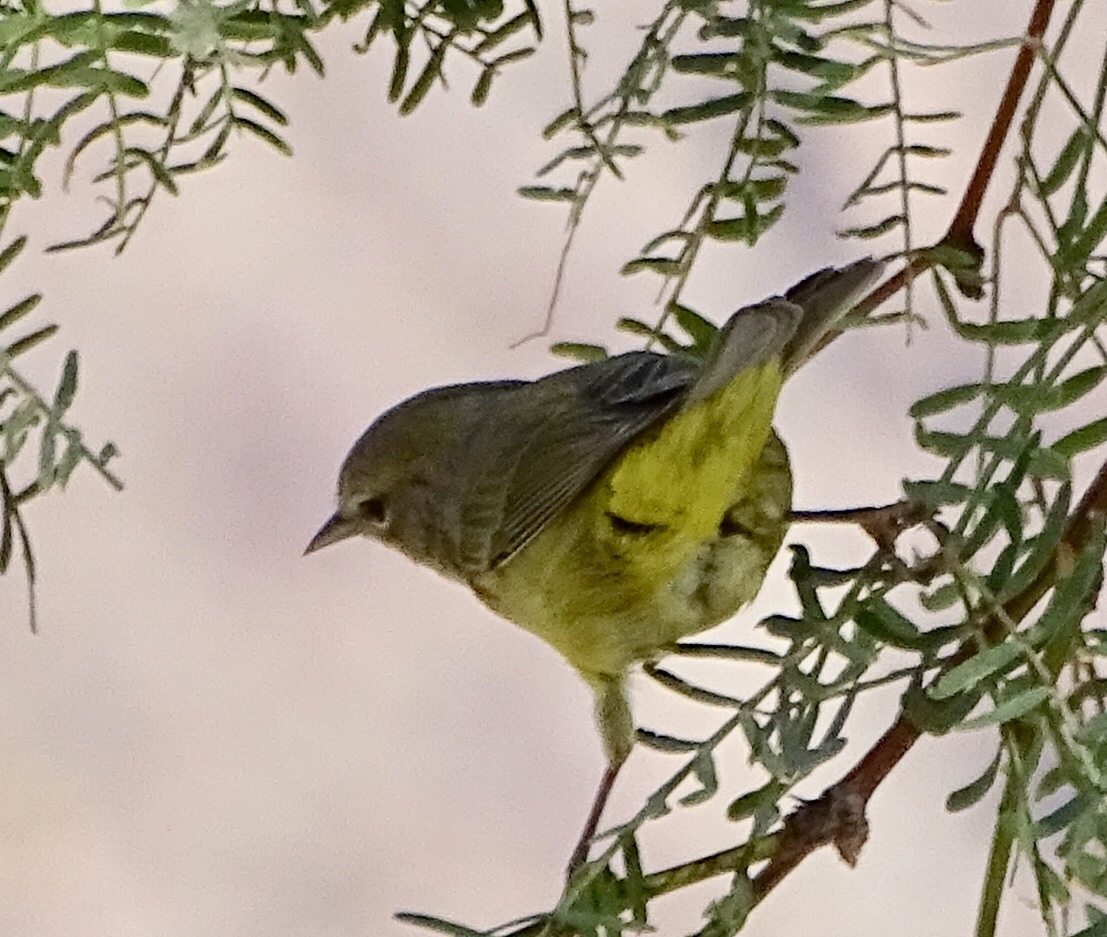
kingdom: Animalia
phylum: Chordata
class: Aves
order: Passeriformes
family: Parulidae
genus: Leiothlypis
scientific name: Leiothlypis celata
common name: Orange-crowned warbler
